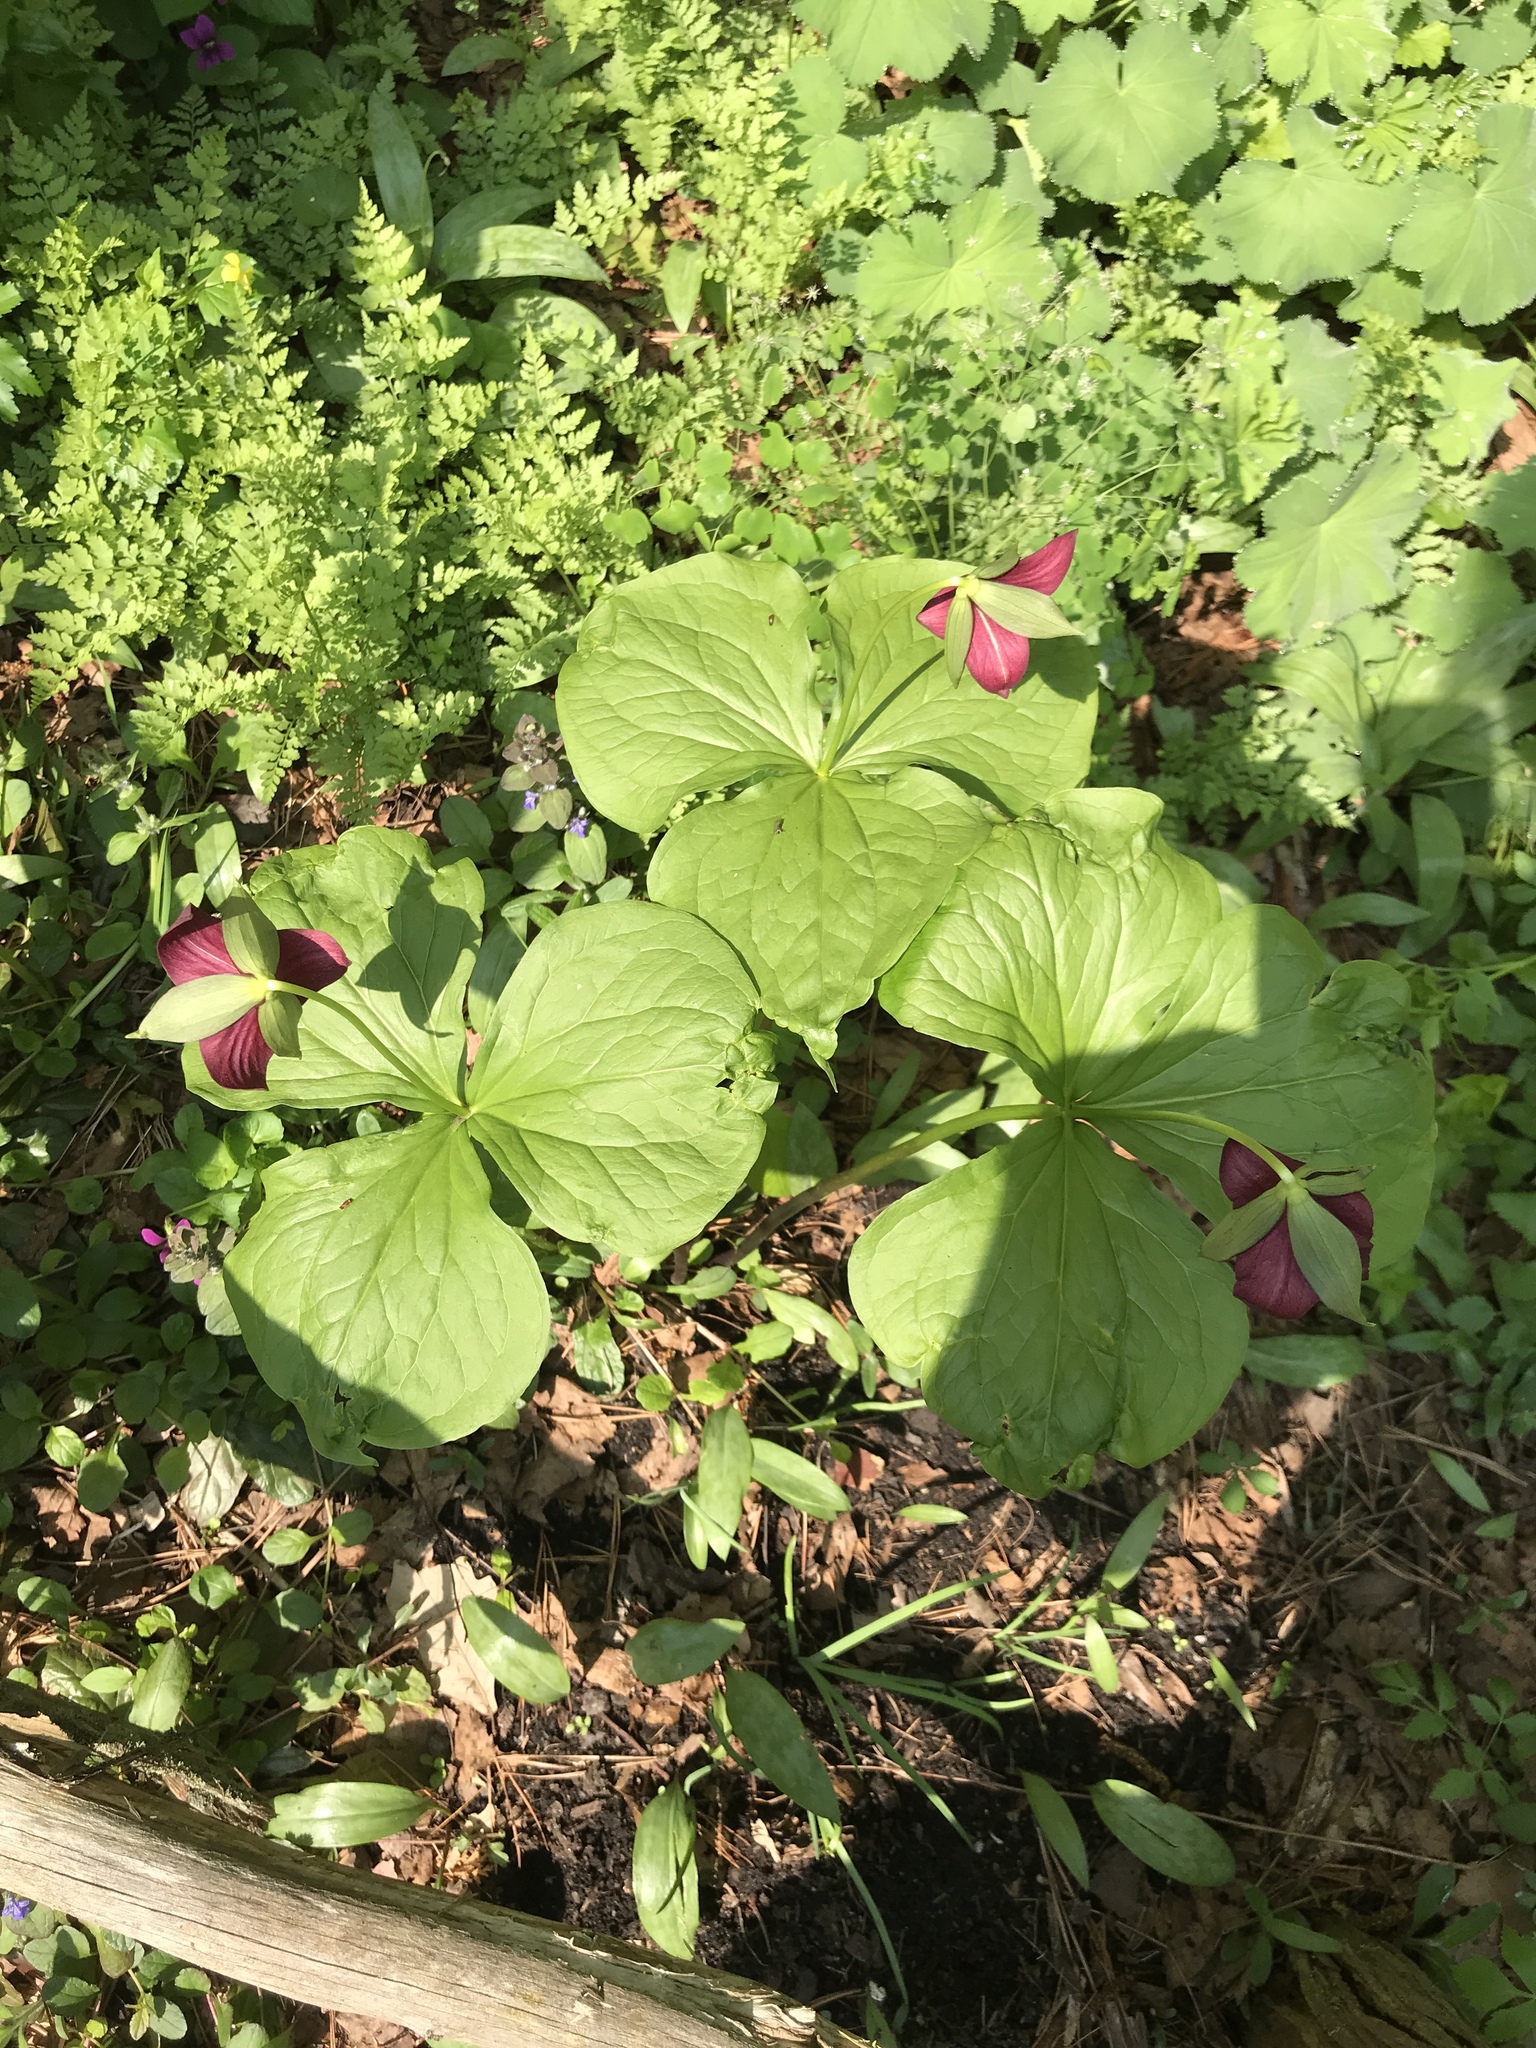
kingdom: Plantae
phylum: Tracheophyta
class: Liliopsida
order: Liliales
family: Melanthiaceae
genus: Trillium
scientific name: Trillium erectum
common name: Purple trillium
